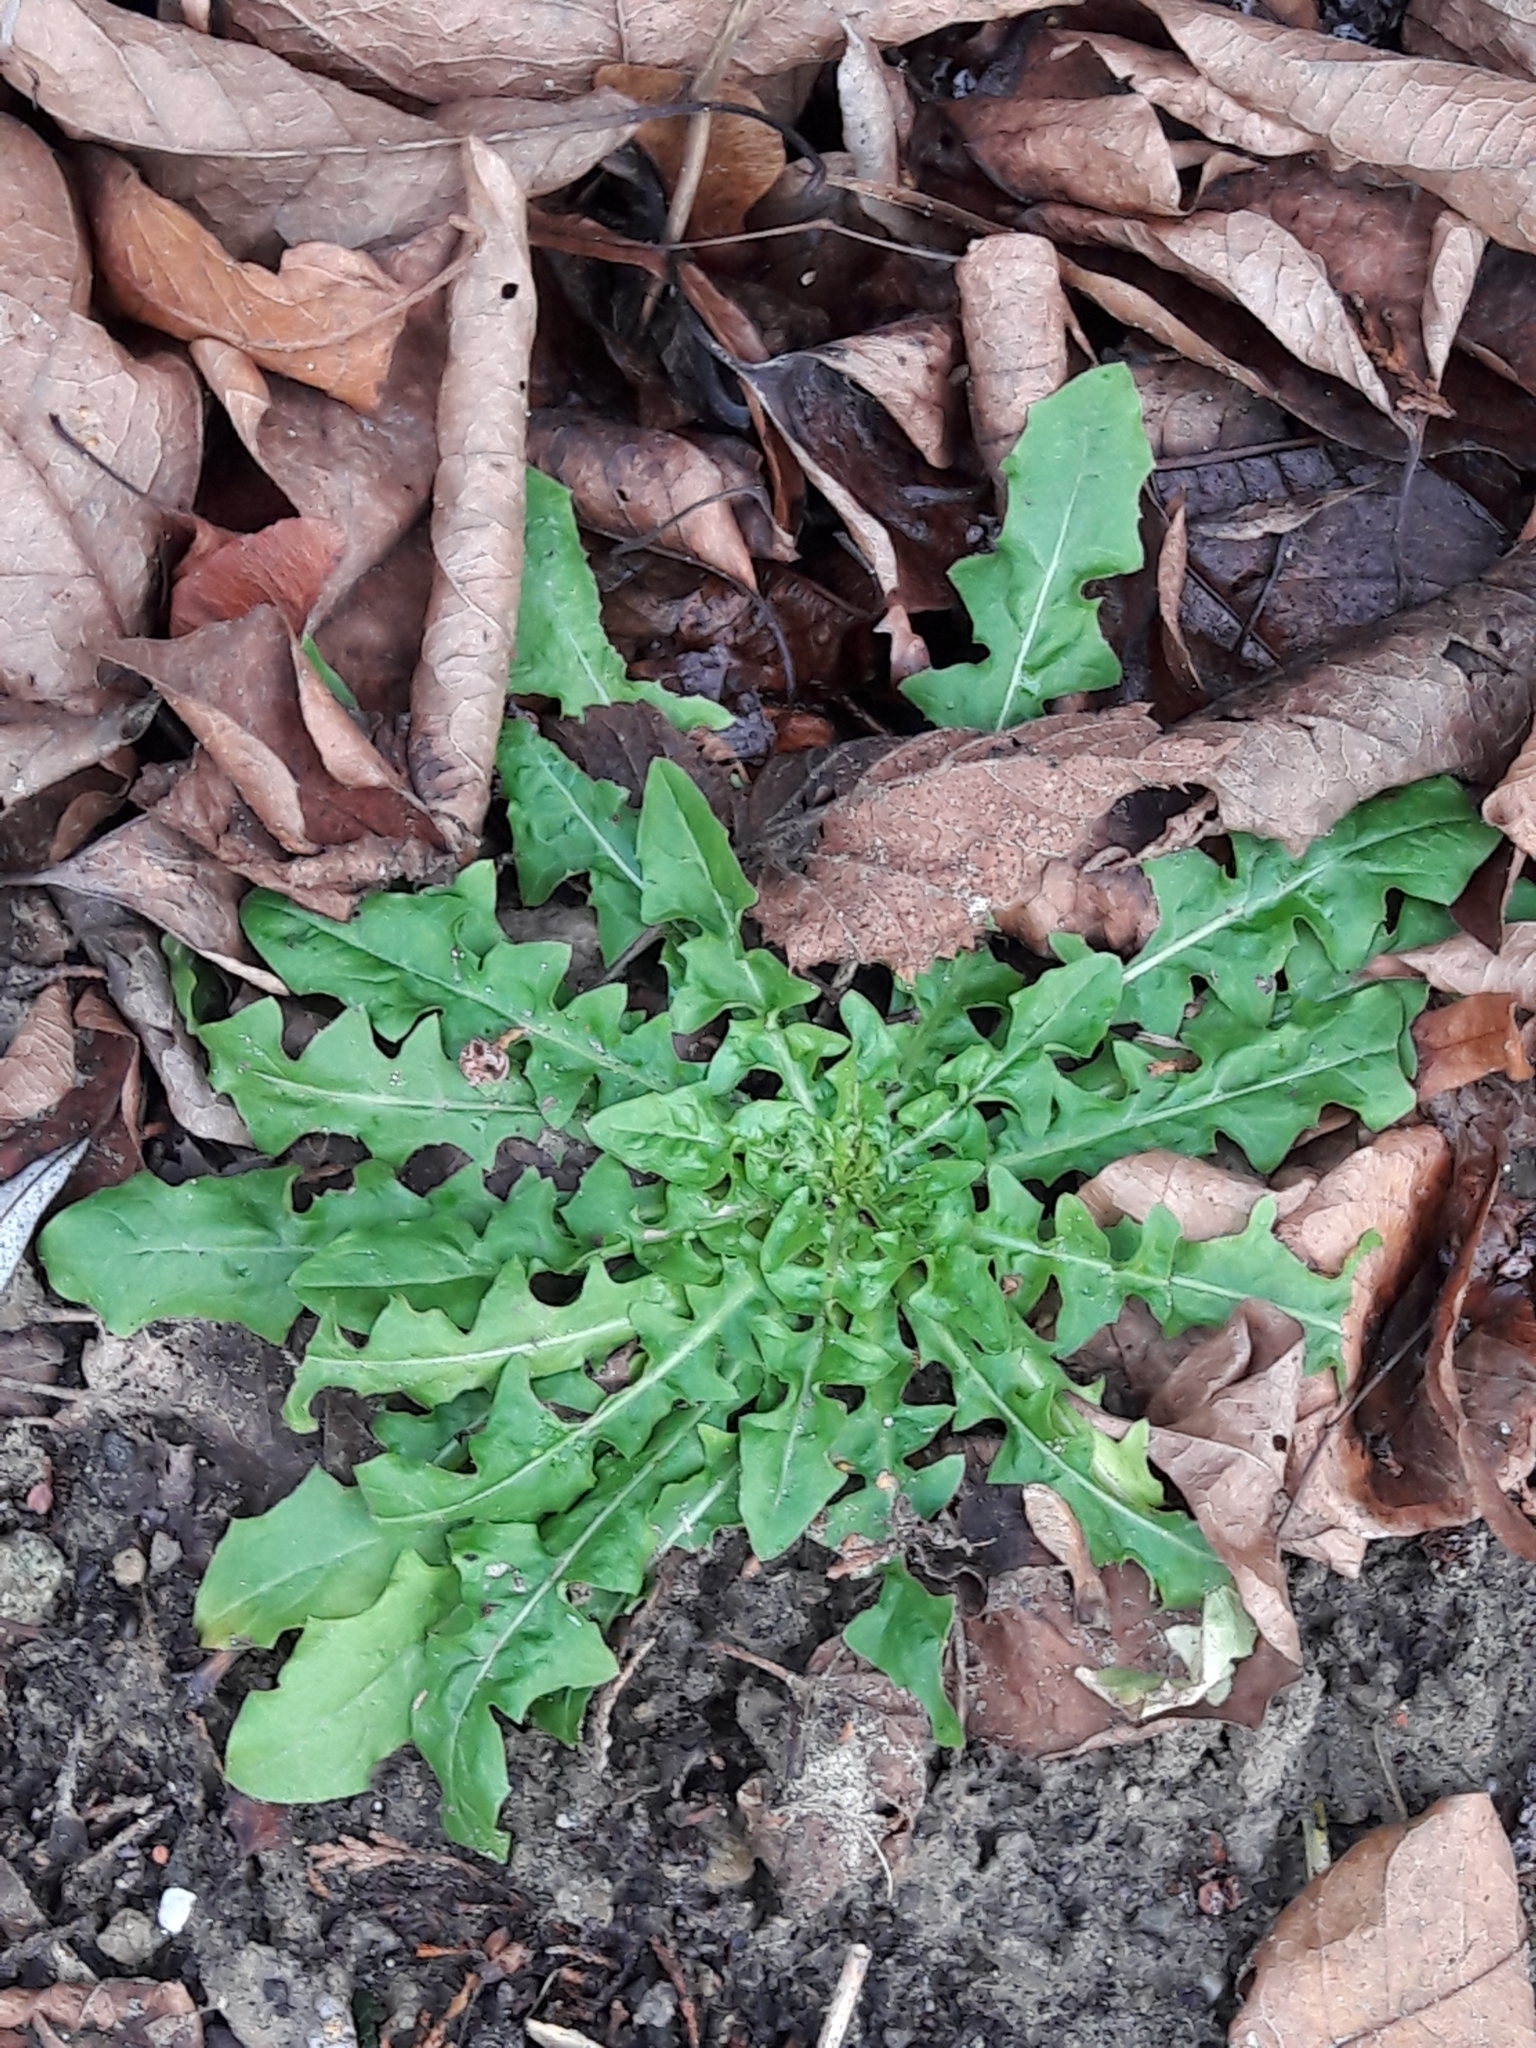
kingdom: Plantae
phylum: Tracheophyta
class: Magnoliopsida
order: Asterales
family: Asteraceae
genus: Taraxacum
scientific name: Taraxacum officinale
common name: Common dandelion
